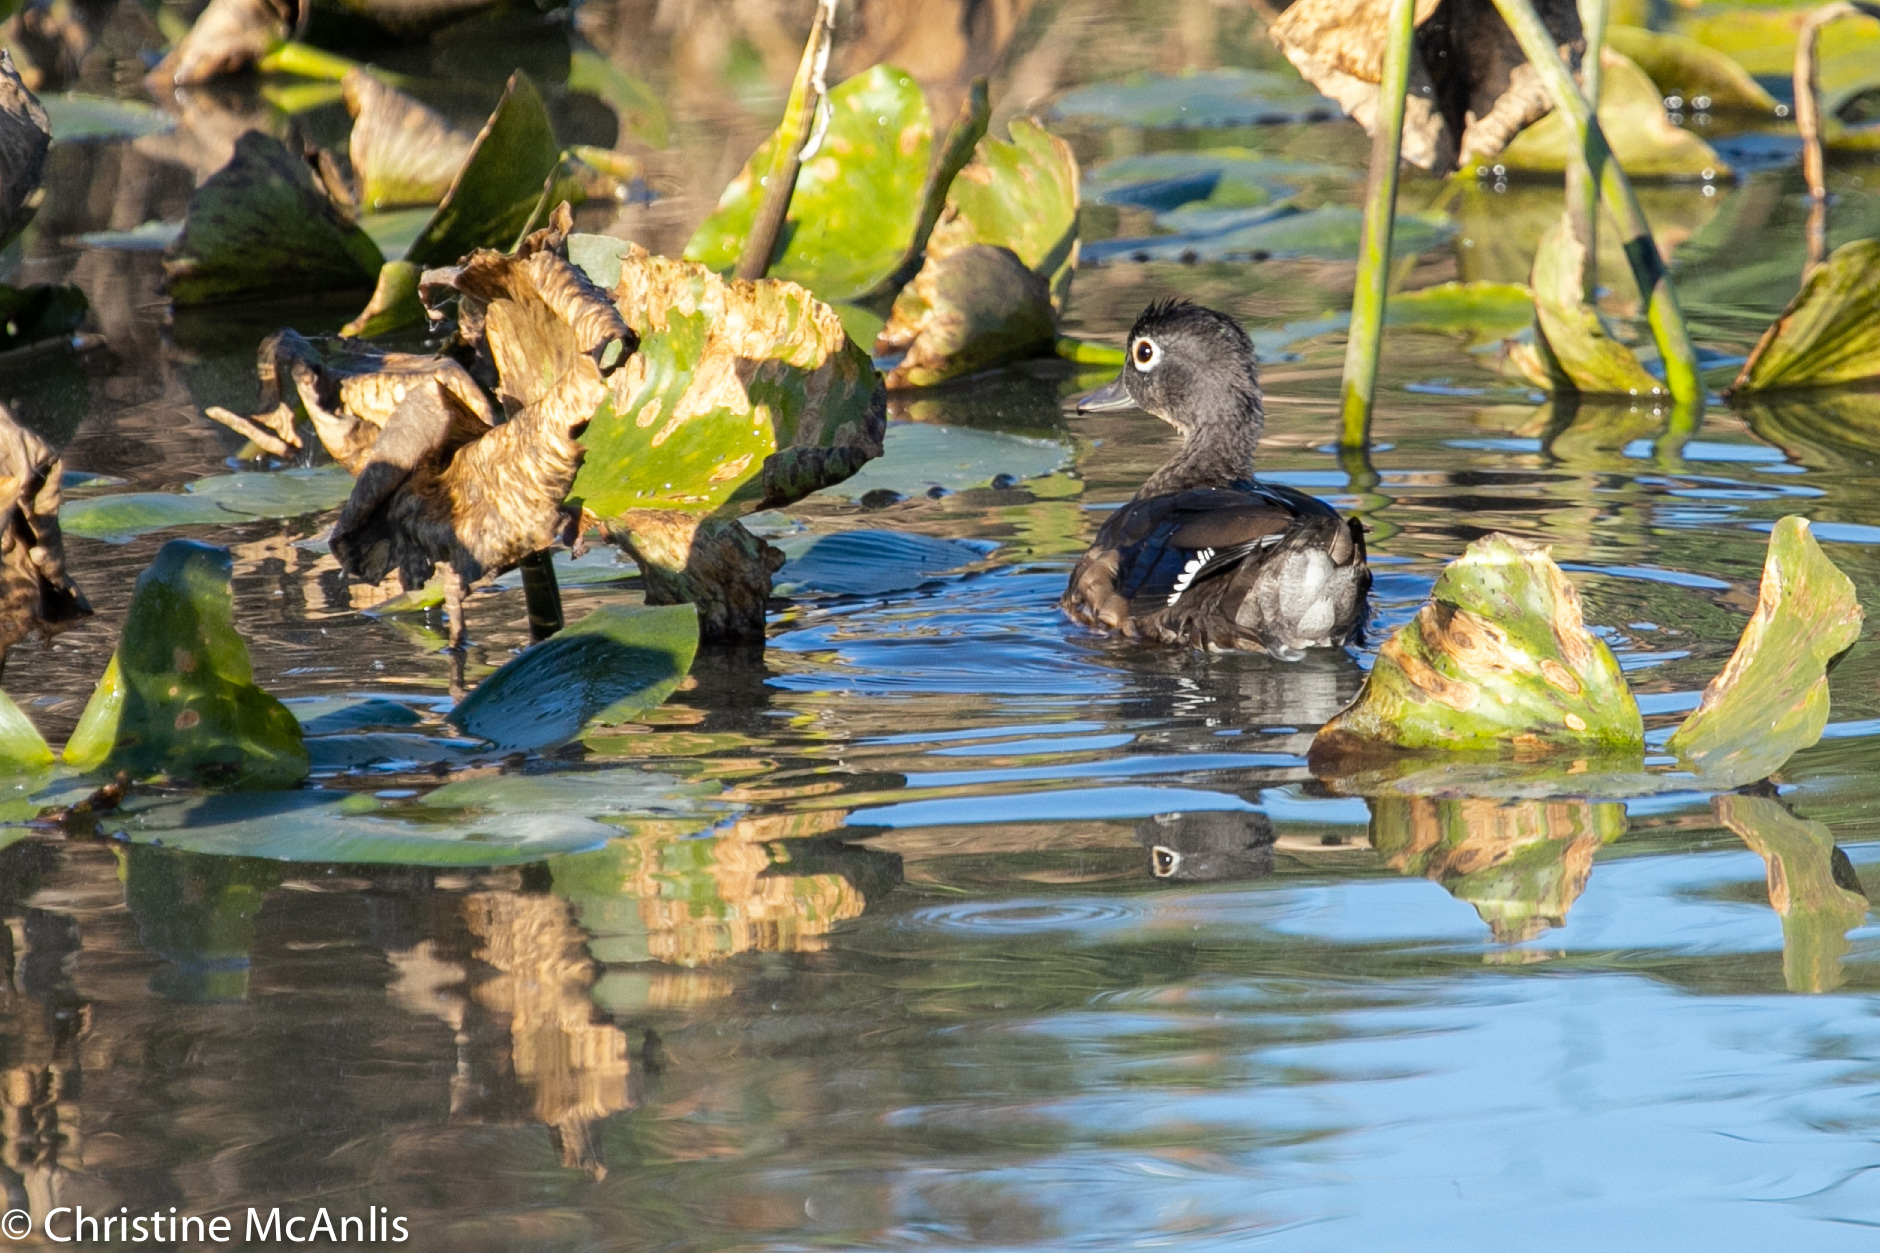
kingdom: Animalia
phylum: Chordata
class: Aves
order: Anseriformes
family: Anatidae
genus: Aix
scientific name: Aix sponsa
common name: Wood duck
